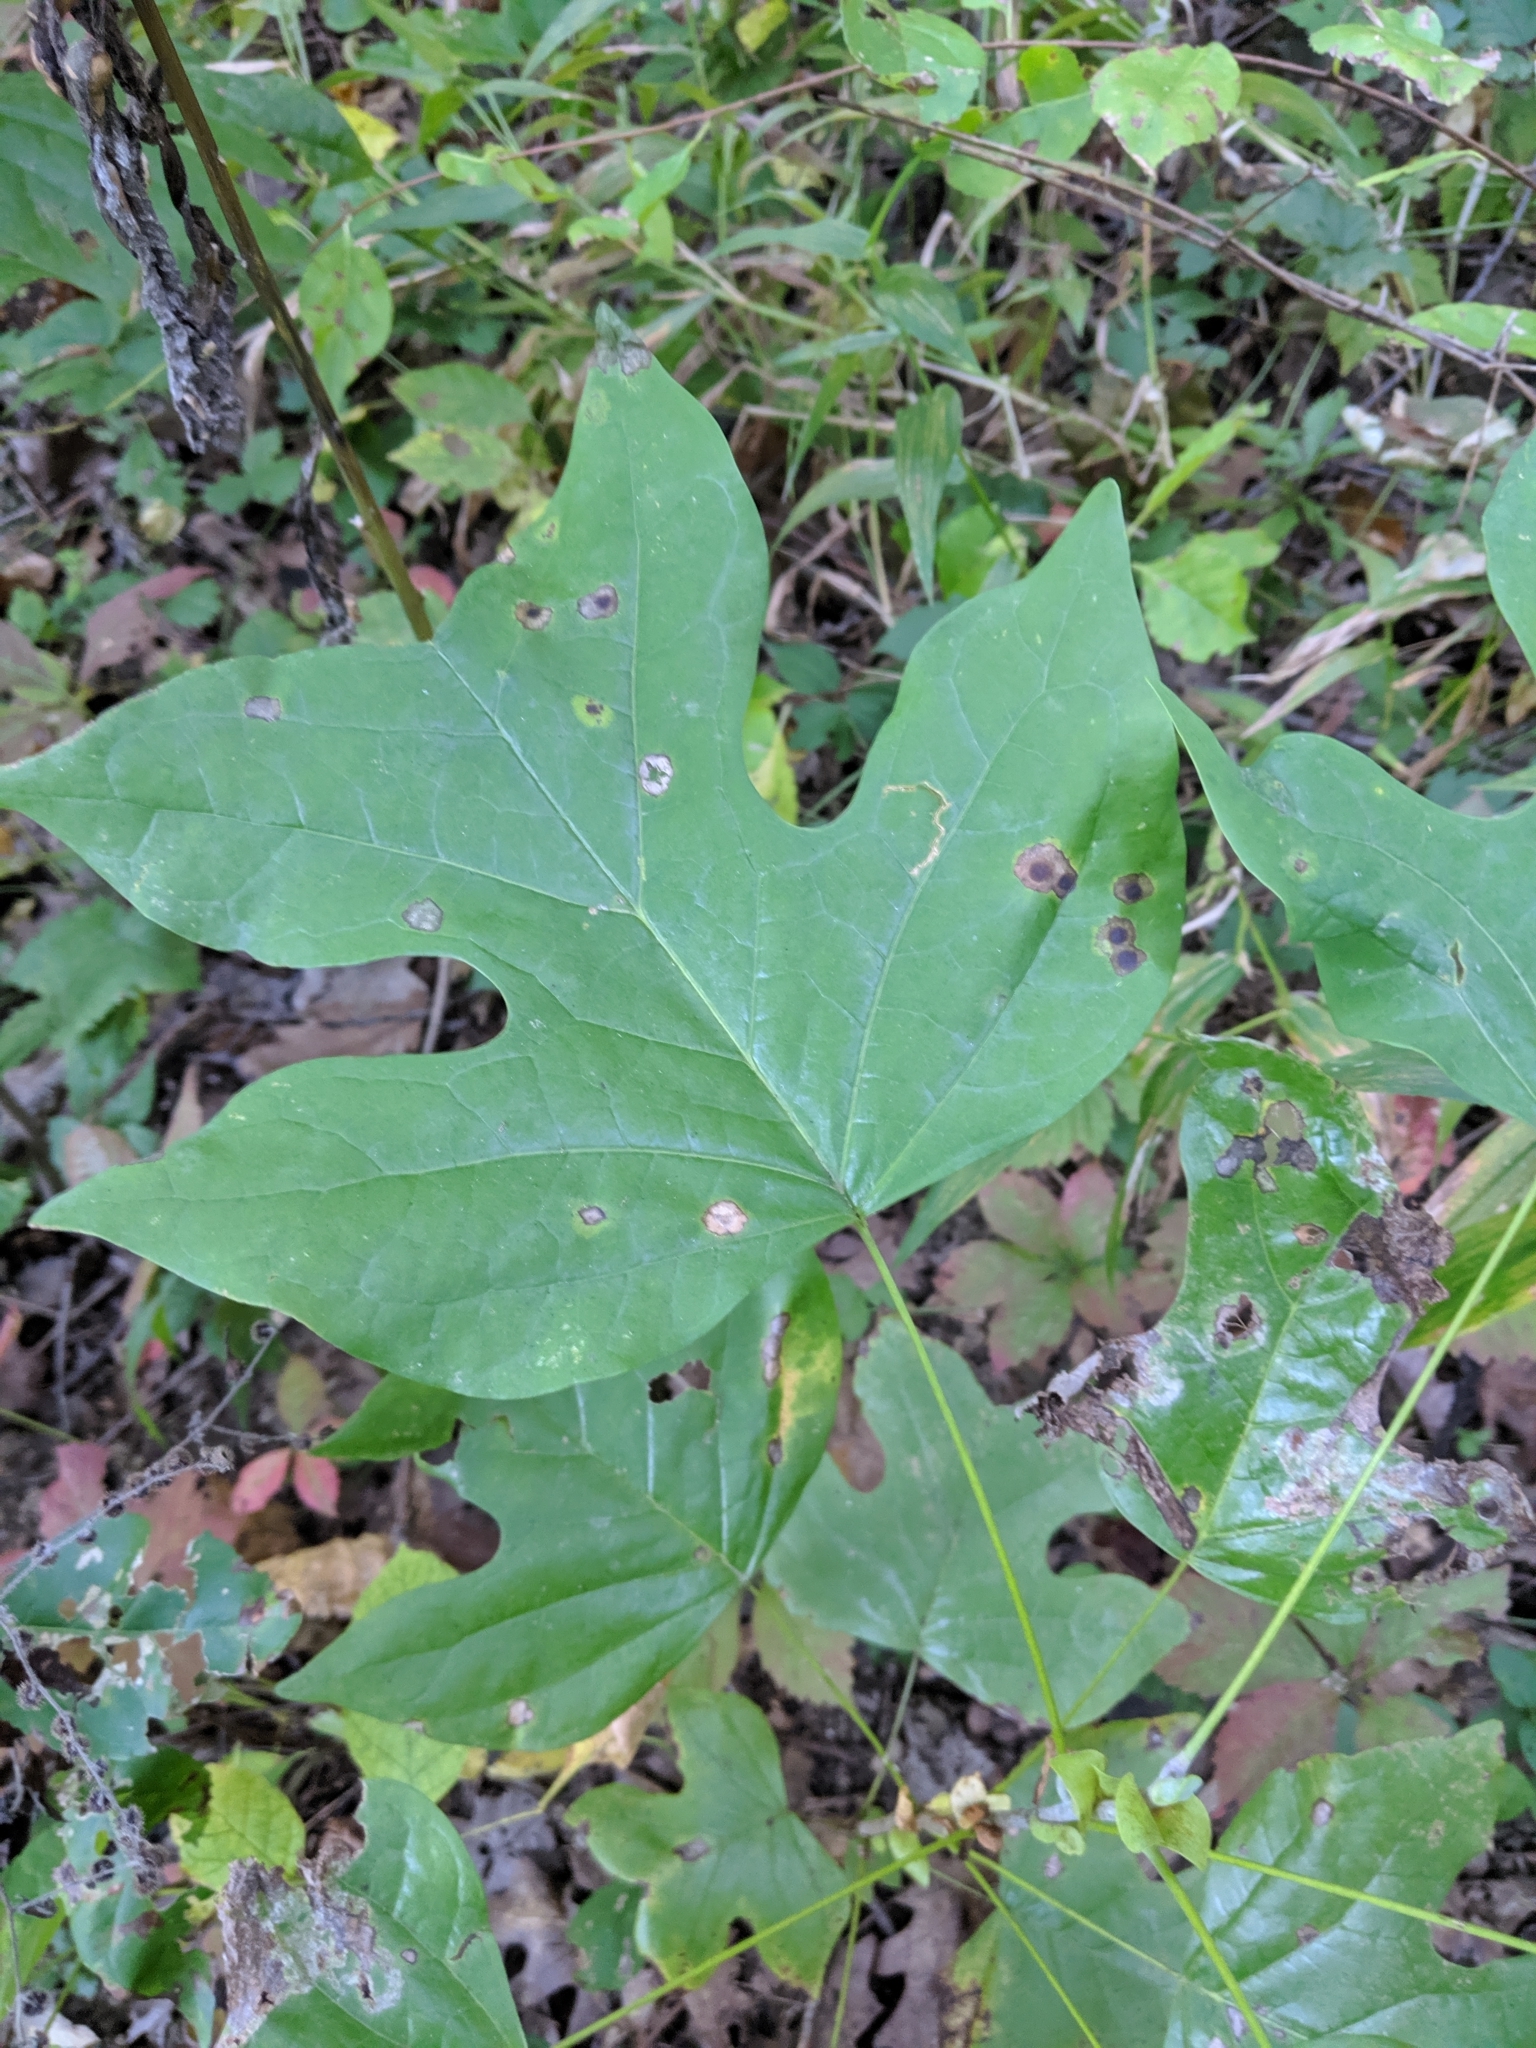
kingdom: Plantae
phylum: Tracheophyta
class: Magnoliopsida
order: Magnoliales
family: Magnoliaceae
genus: Liriodendron
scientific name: Liriodendron tulipifera
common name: Tulip tree
